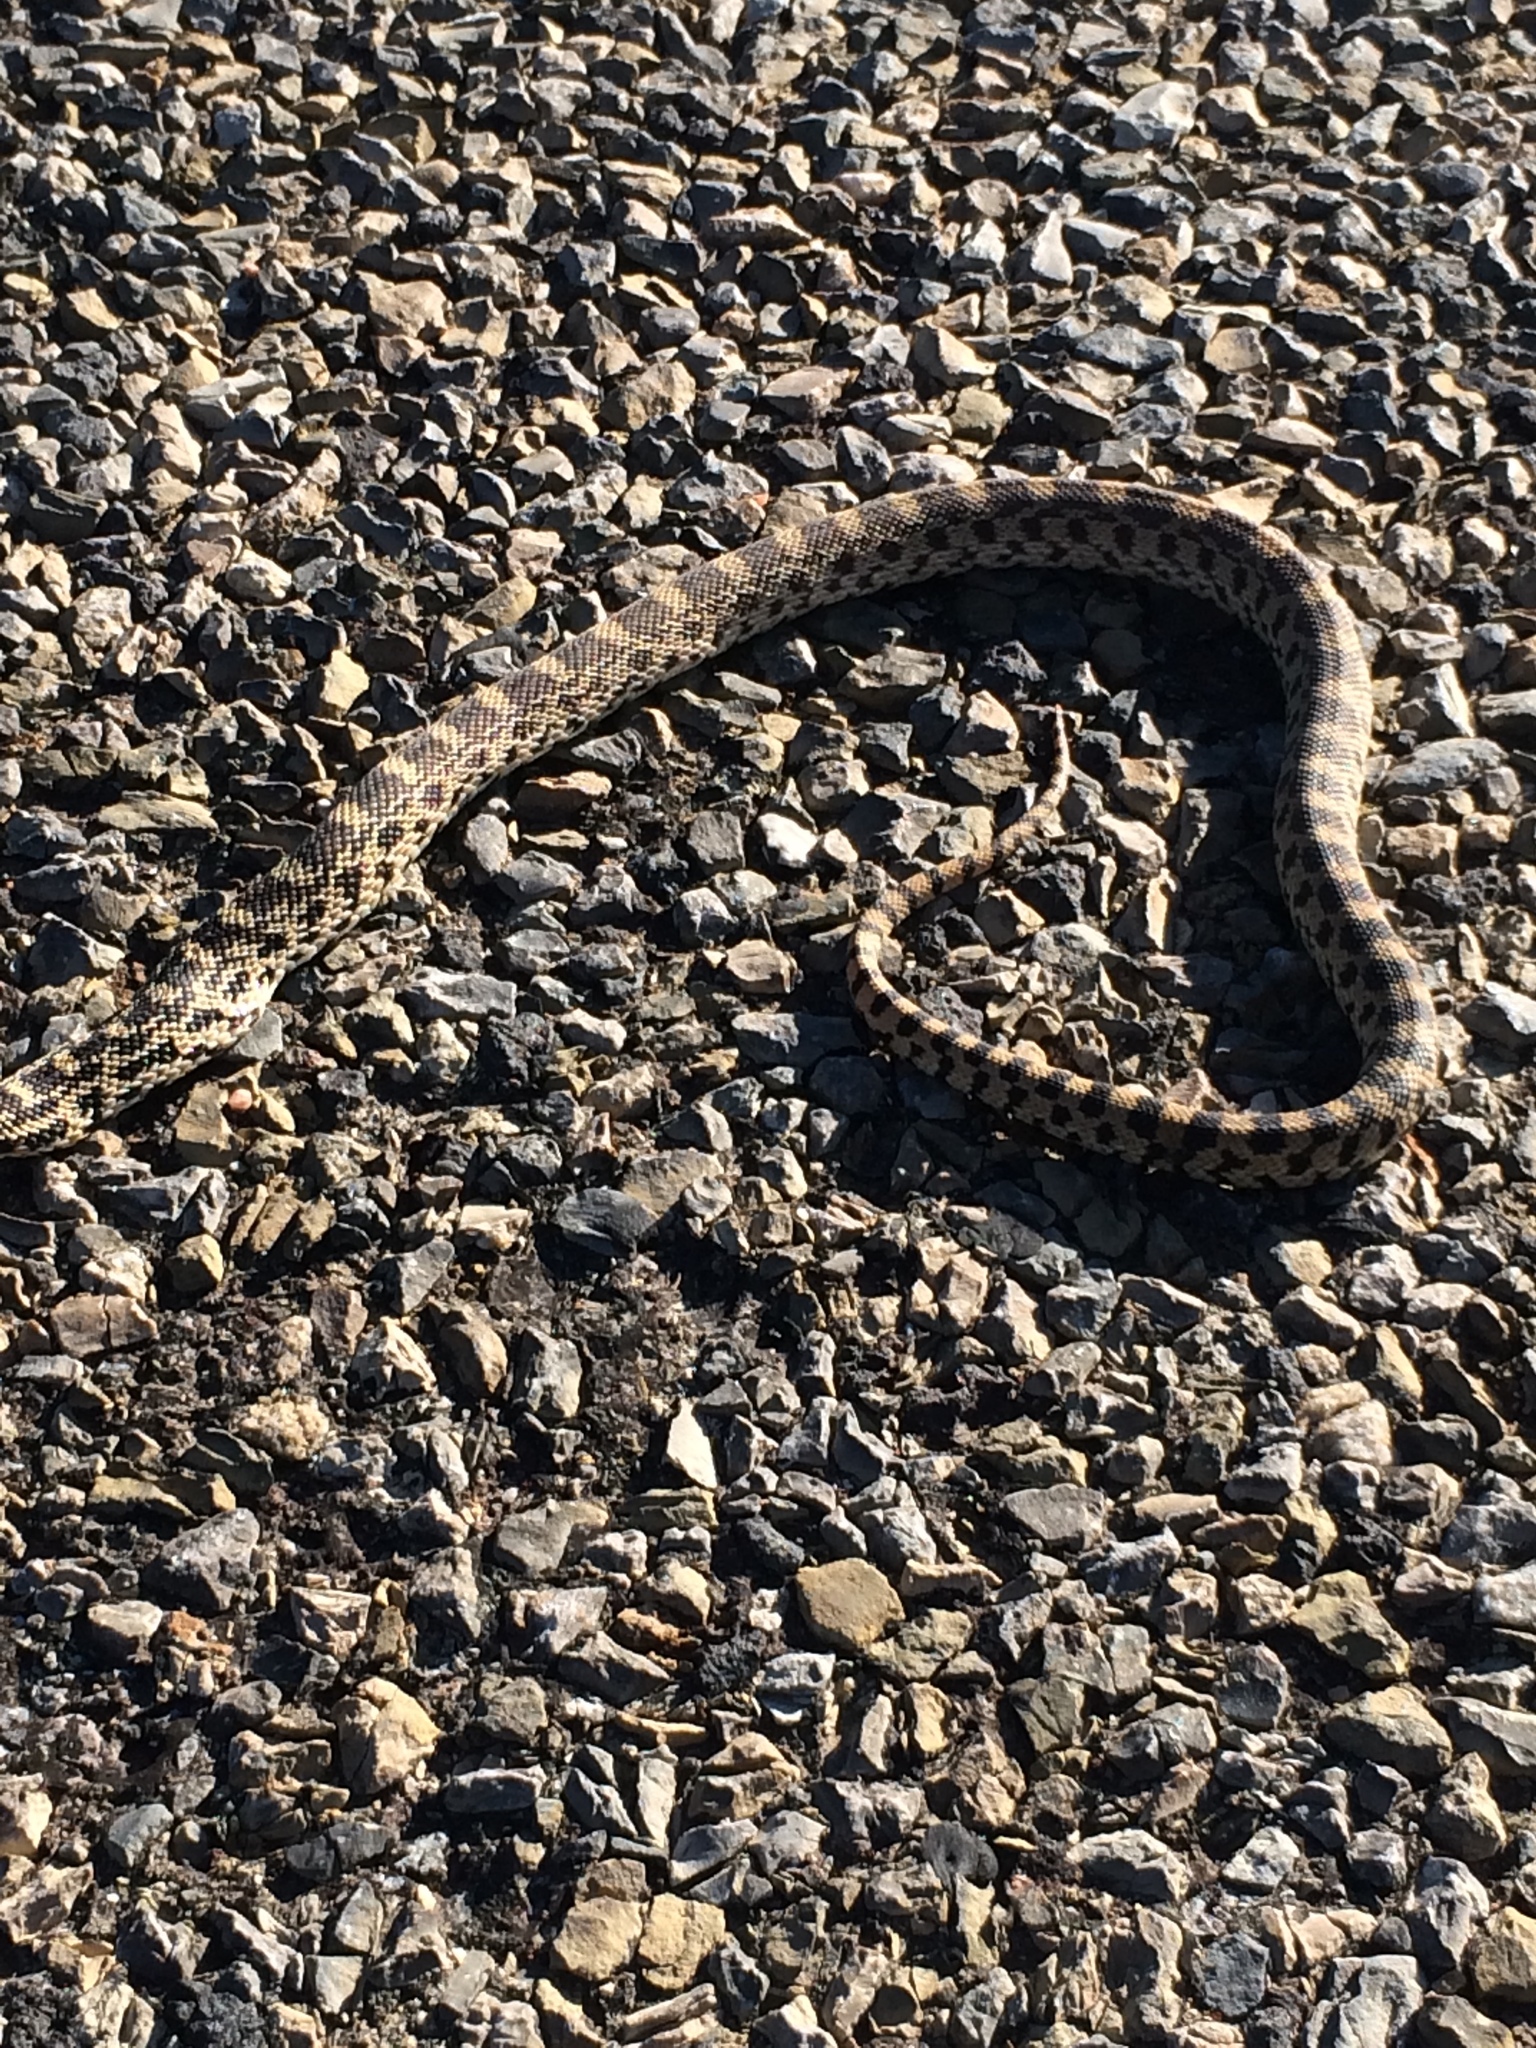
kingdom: Animalia
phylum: Chordata
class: Squamata
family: Colubridae
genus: Pituophis
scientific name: Pituophis catenifer
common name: Gopher snake
